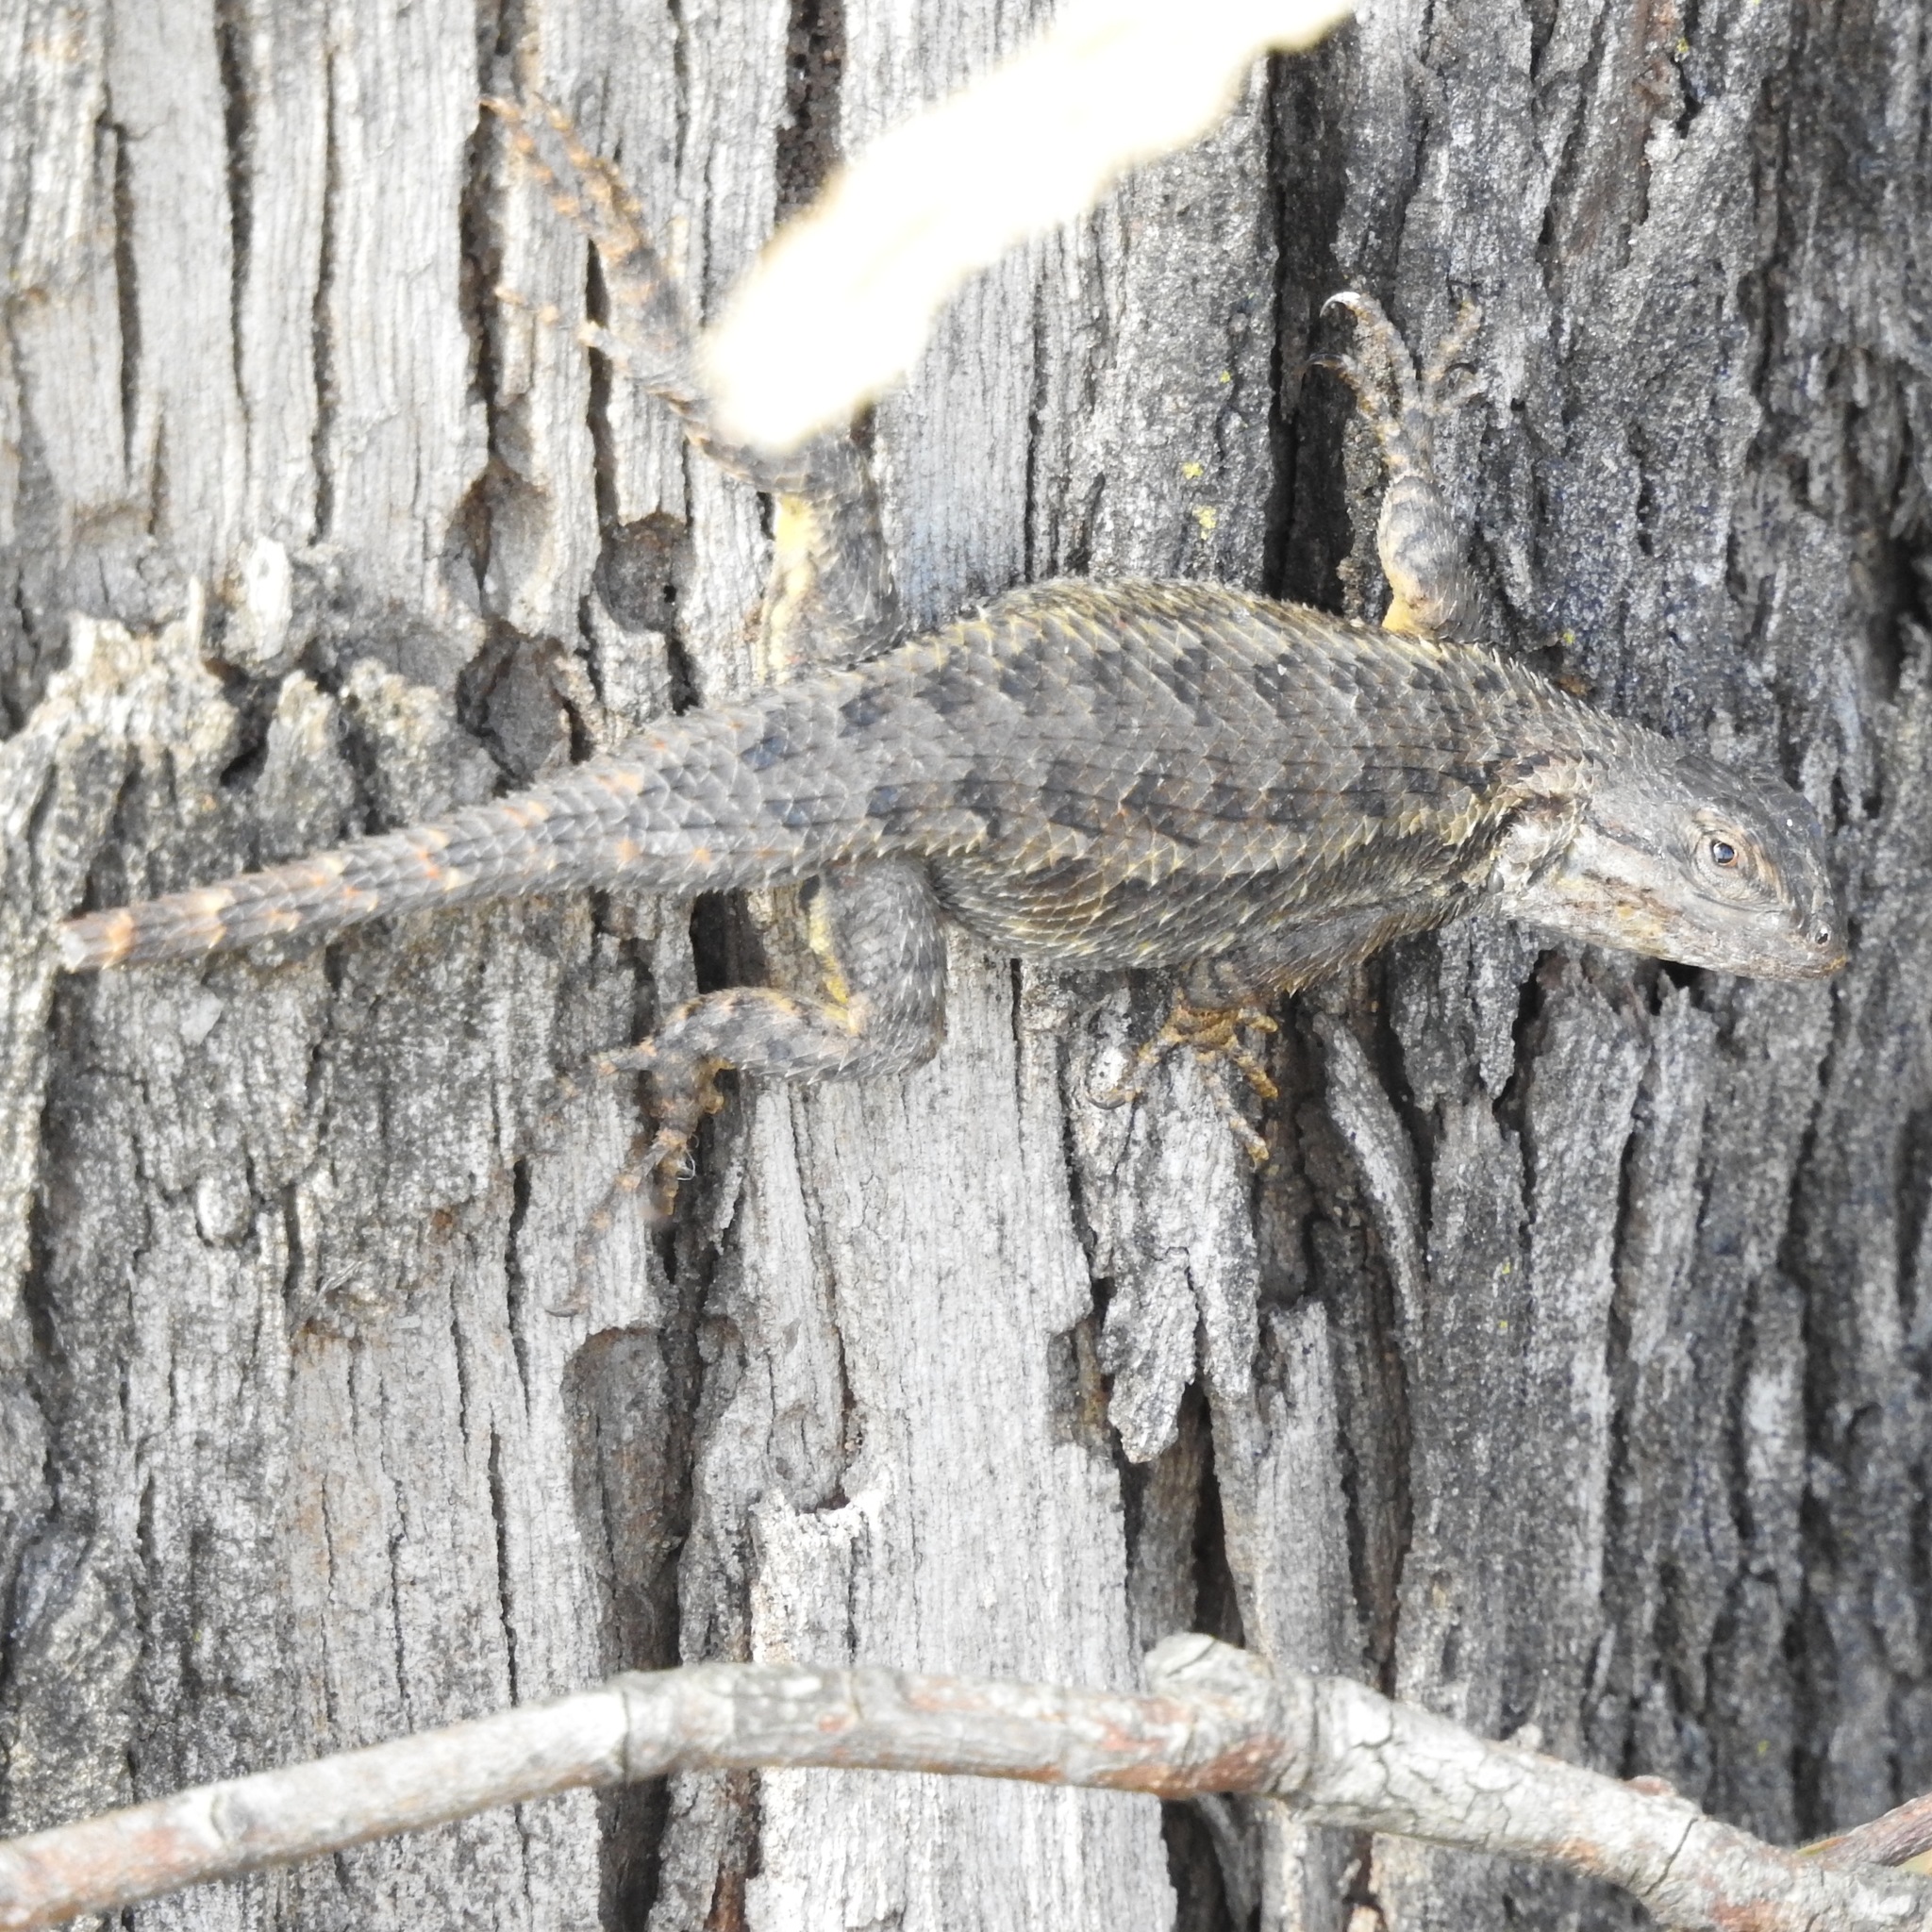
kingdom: Animalia
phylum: Chordata
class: Squamata
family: Phrynosomatidae
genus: Sceloporus
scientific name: Sceloporus occidentalis
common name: Western fence lizard
